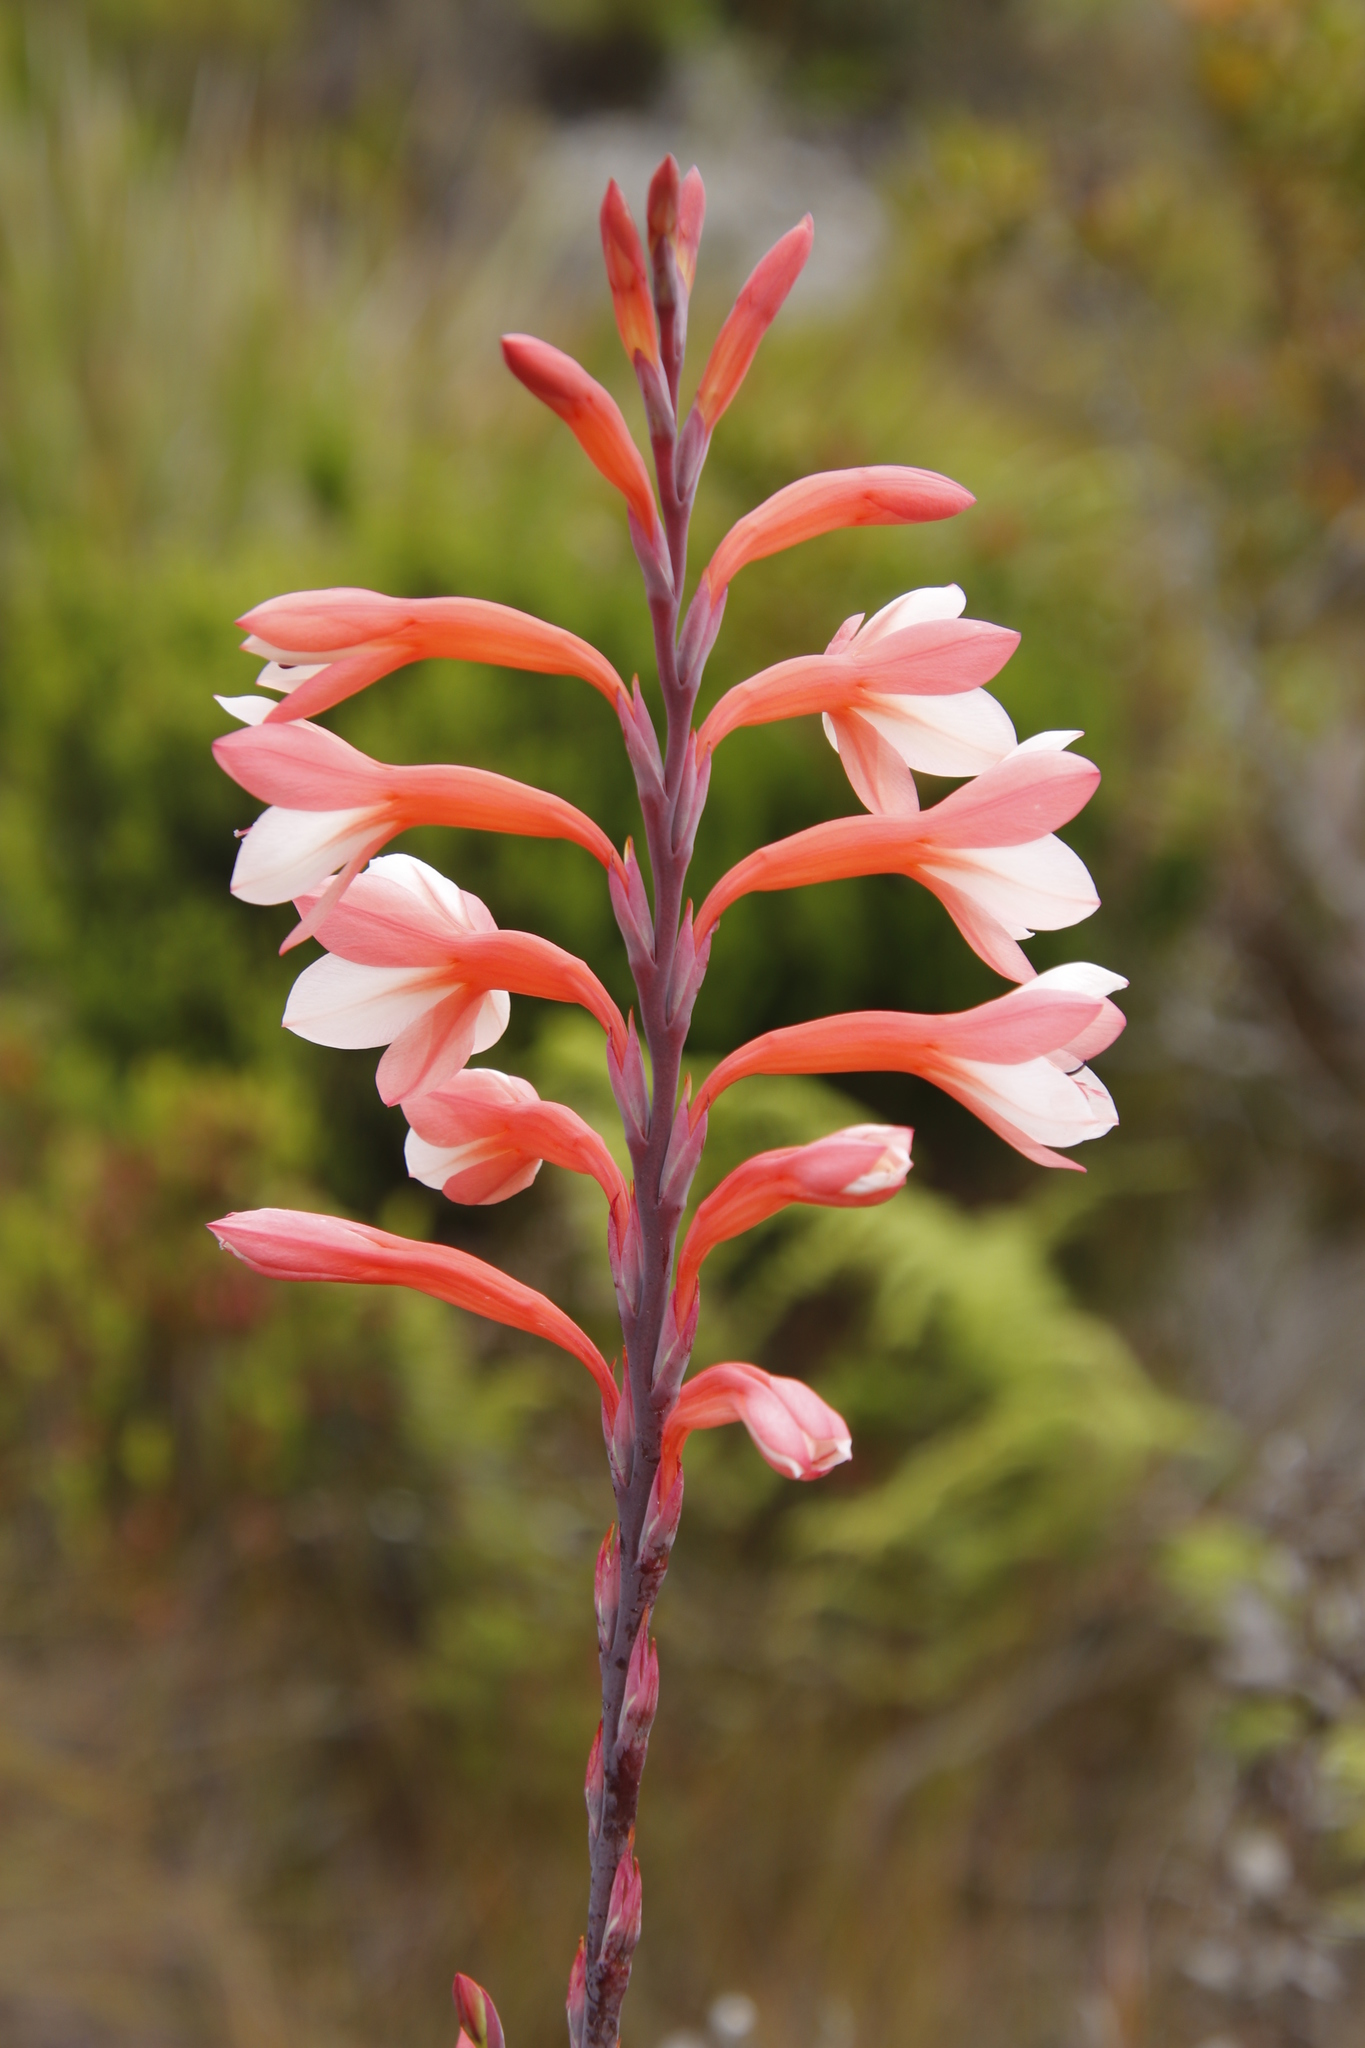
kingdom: Plantae
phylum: Tracheophyta
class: Liliopsida
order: Asparagales
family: Iridaceae
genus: Watsonia
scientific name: Watsonia tabularis
